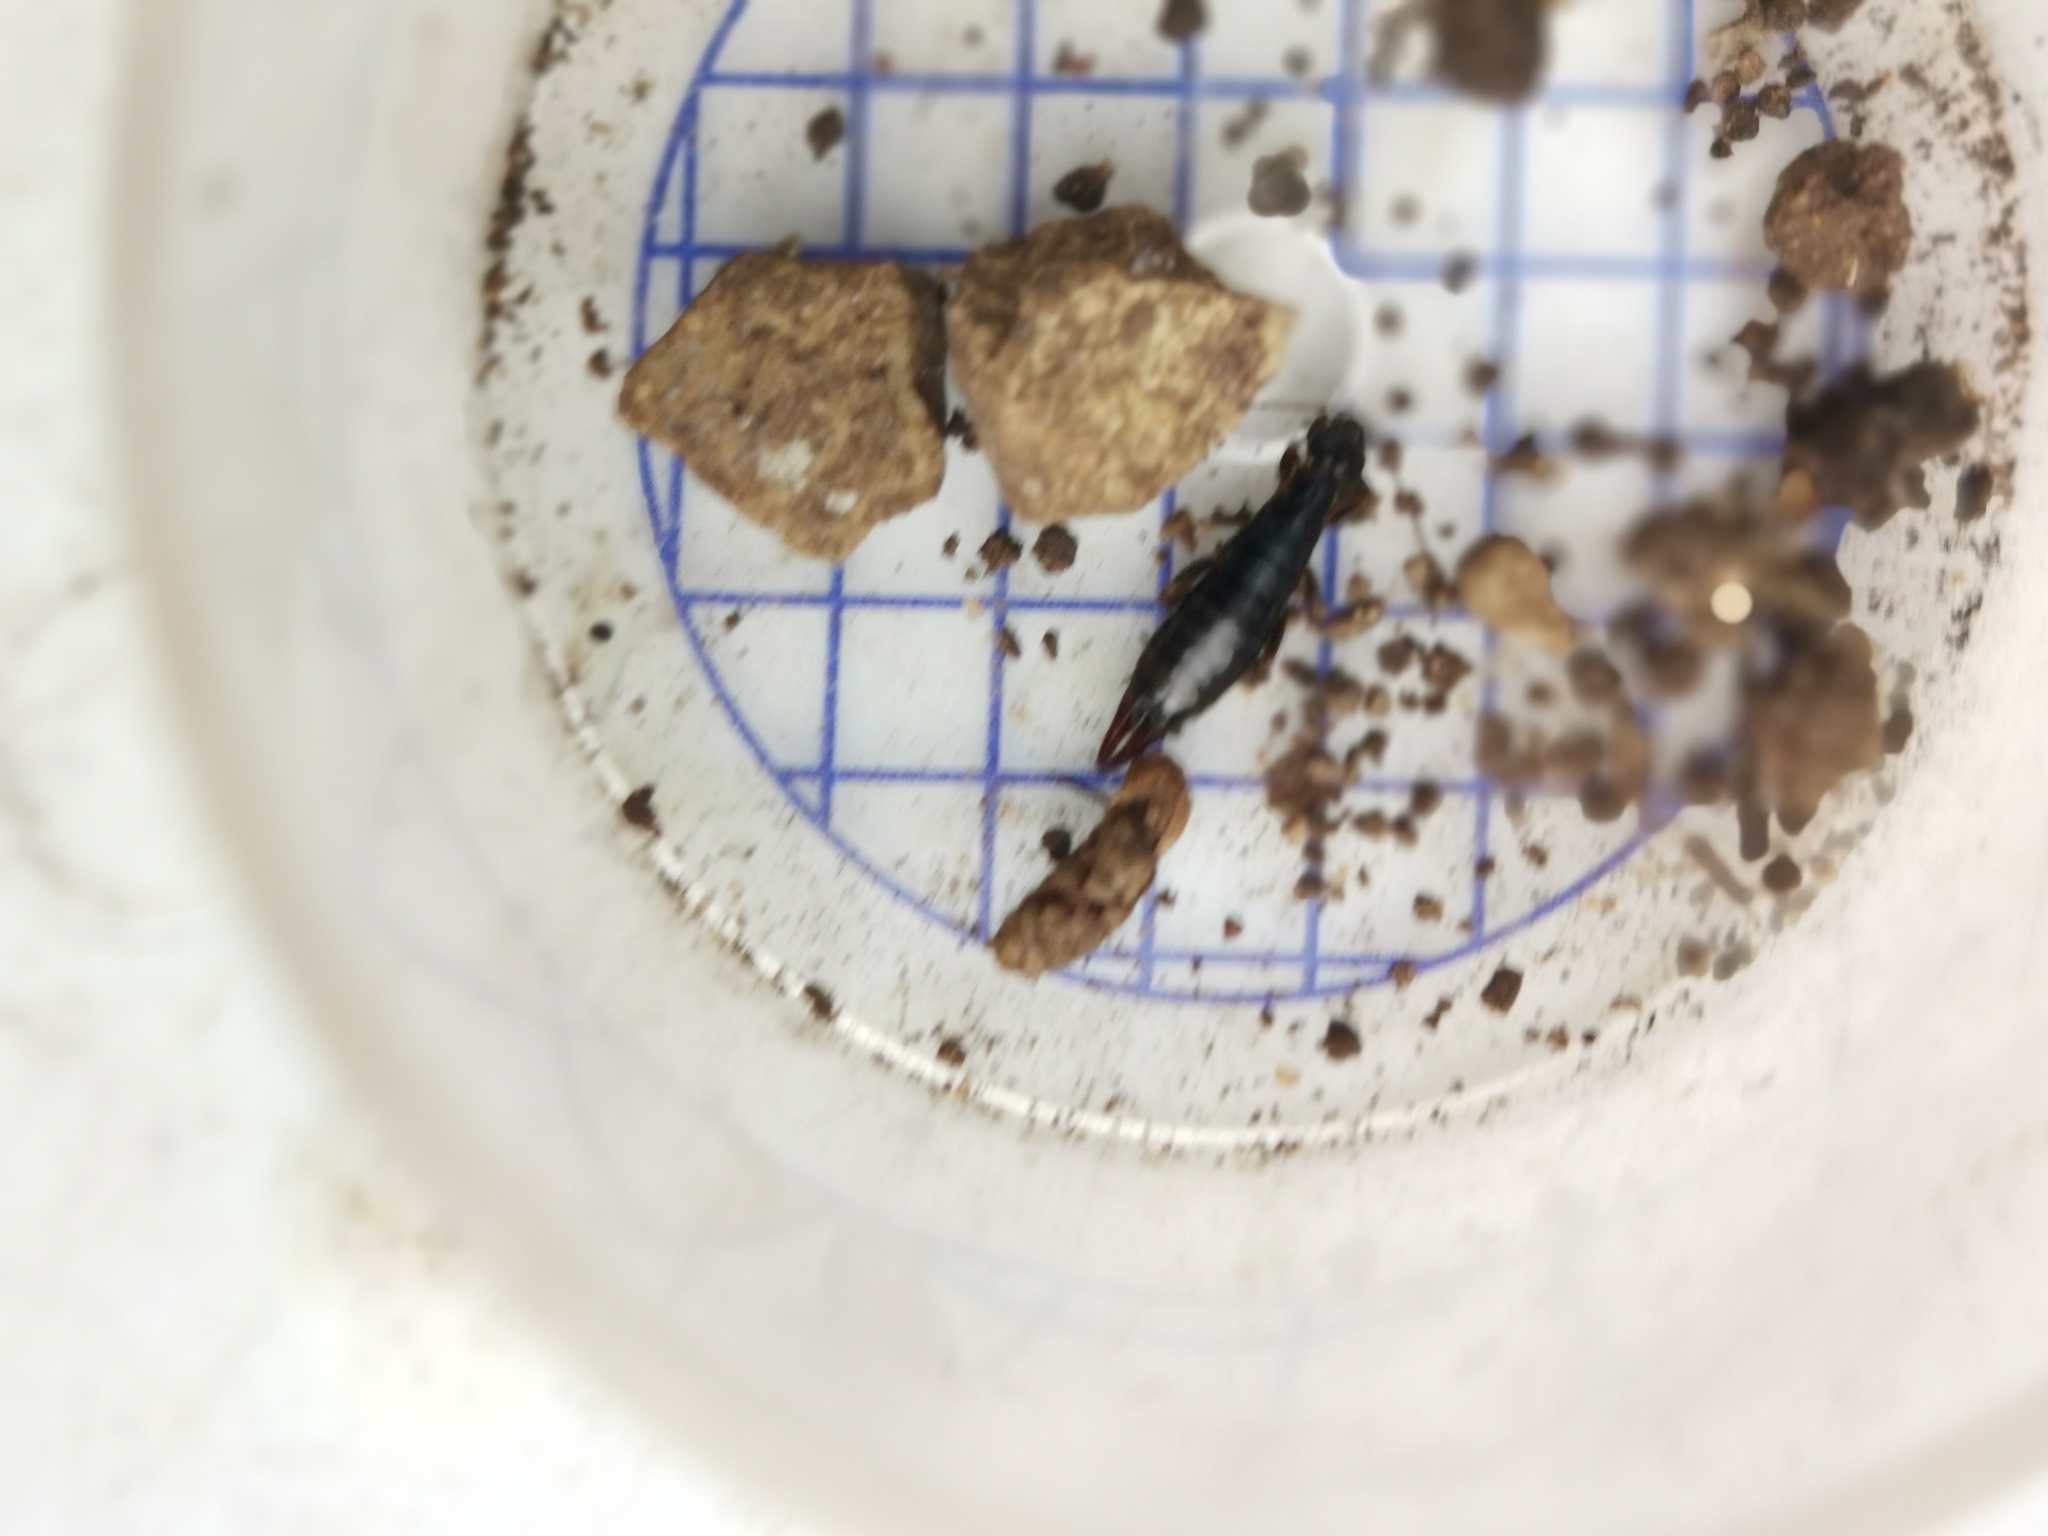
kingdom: Animalia
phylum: Arthropoda
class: Insecta
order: Dermaptera
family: Anisolabididae
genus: Euborellia
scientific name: Euborellia moesta
